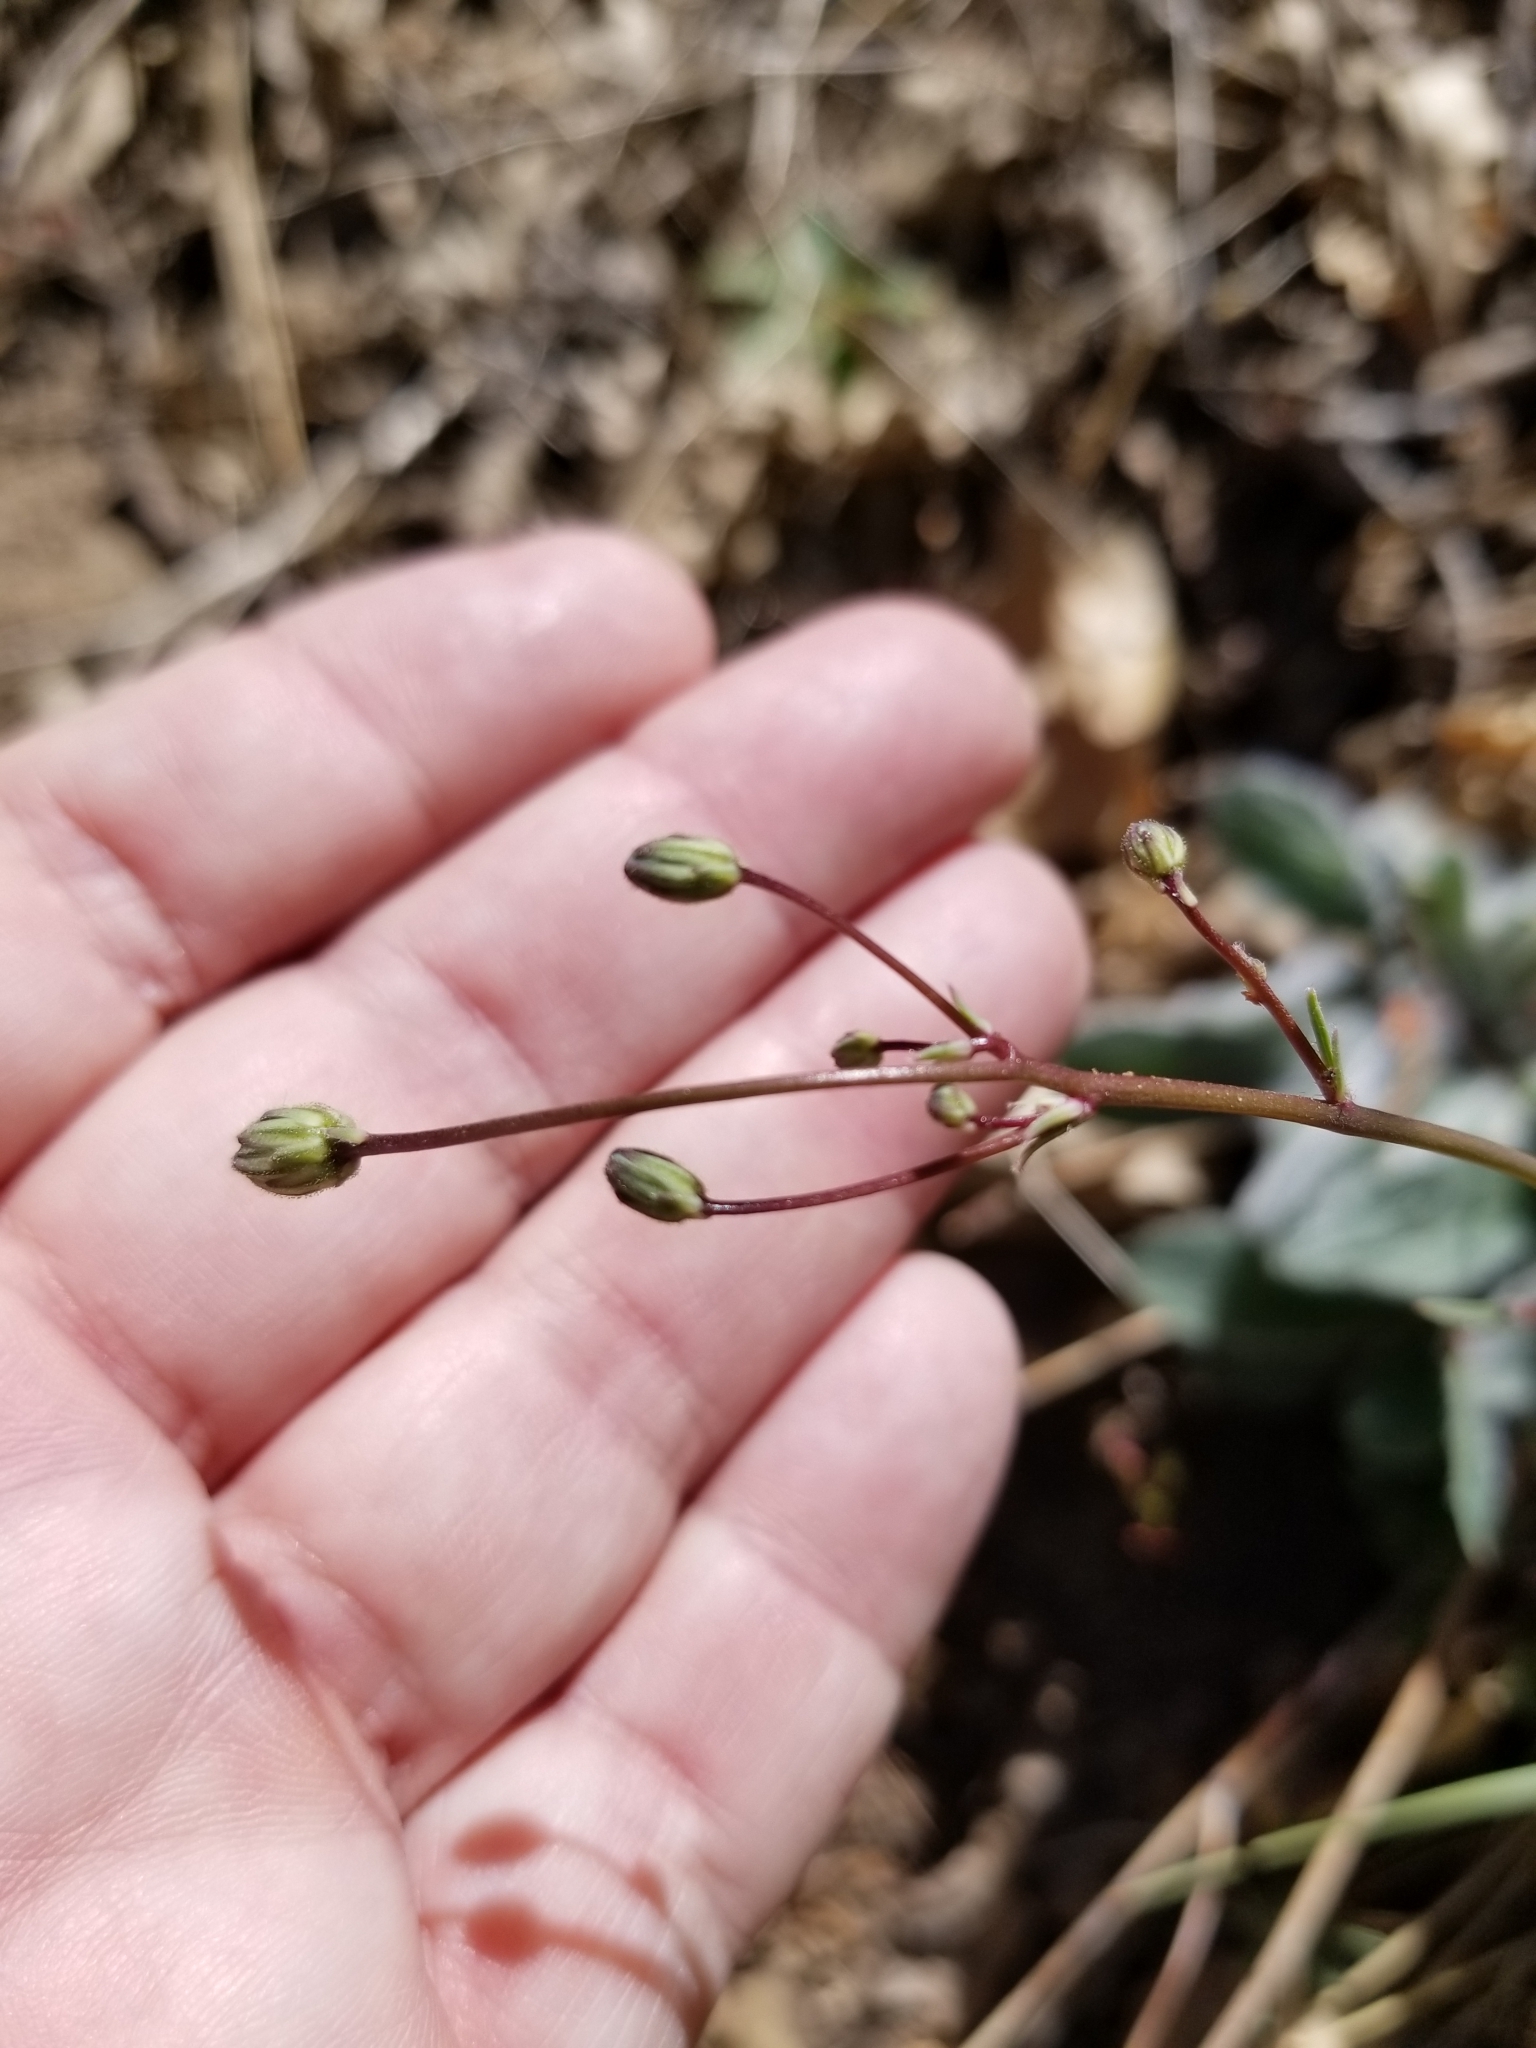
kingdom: Plantae
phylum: Tracheophyta
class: Magnoliopsida
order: Asterales
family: Asteraceae
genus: Hieracium
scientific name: Hieracium horridum
